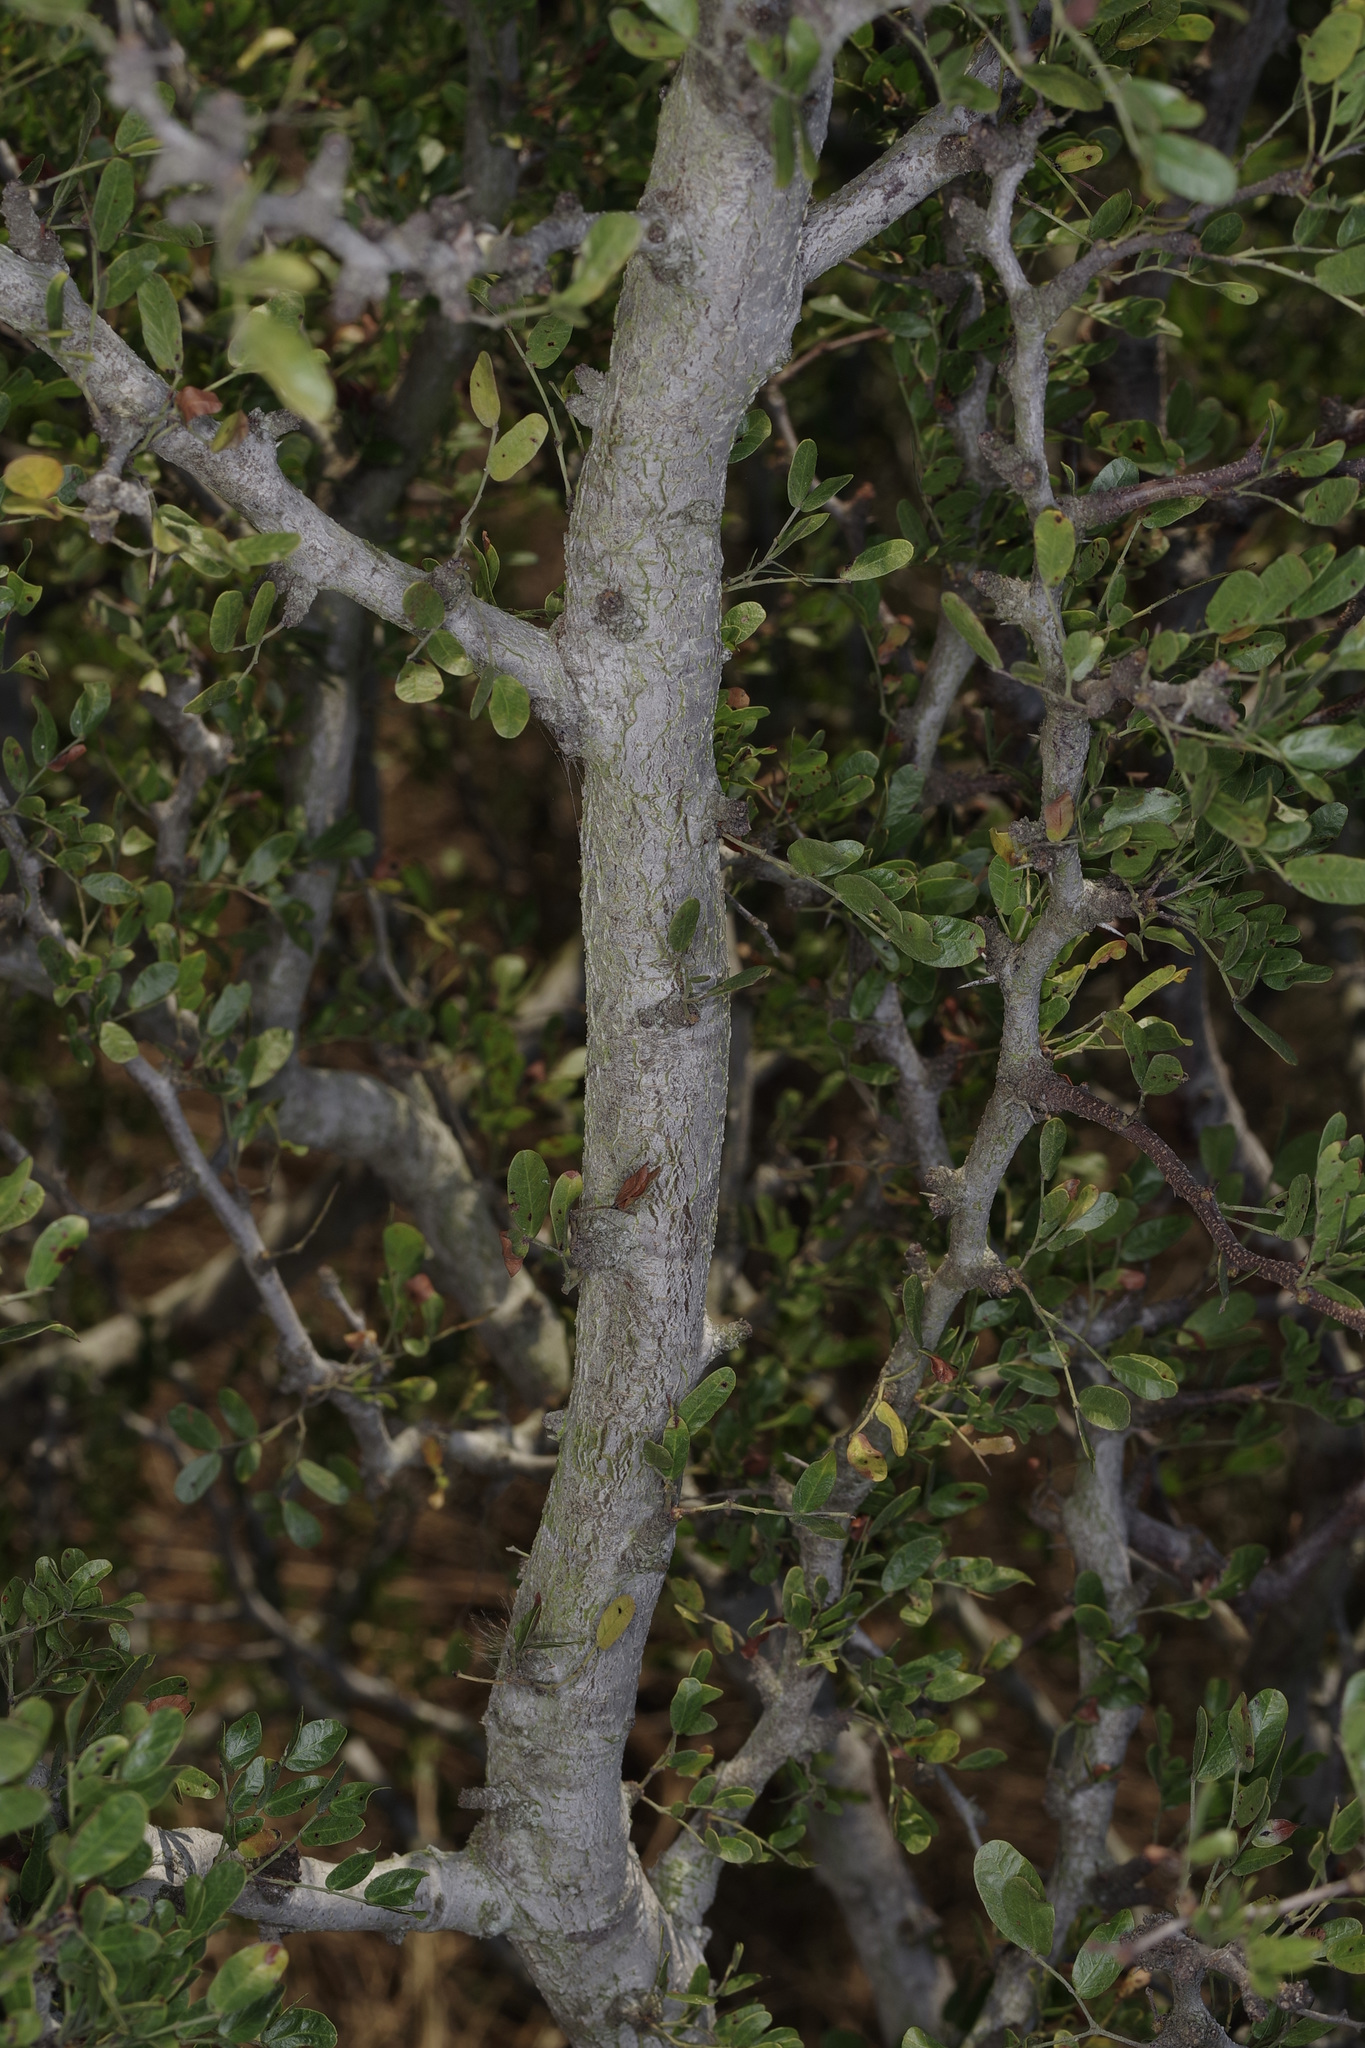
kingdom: Plantae
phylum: Tracheophyta
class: Magnoliopsida
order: Fabales
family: Fabaceae
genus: Vachellia
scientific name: Vachellia rigidula
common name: Blackbrush
